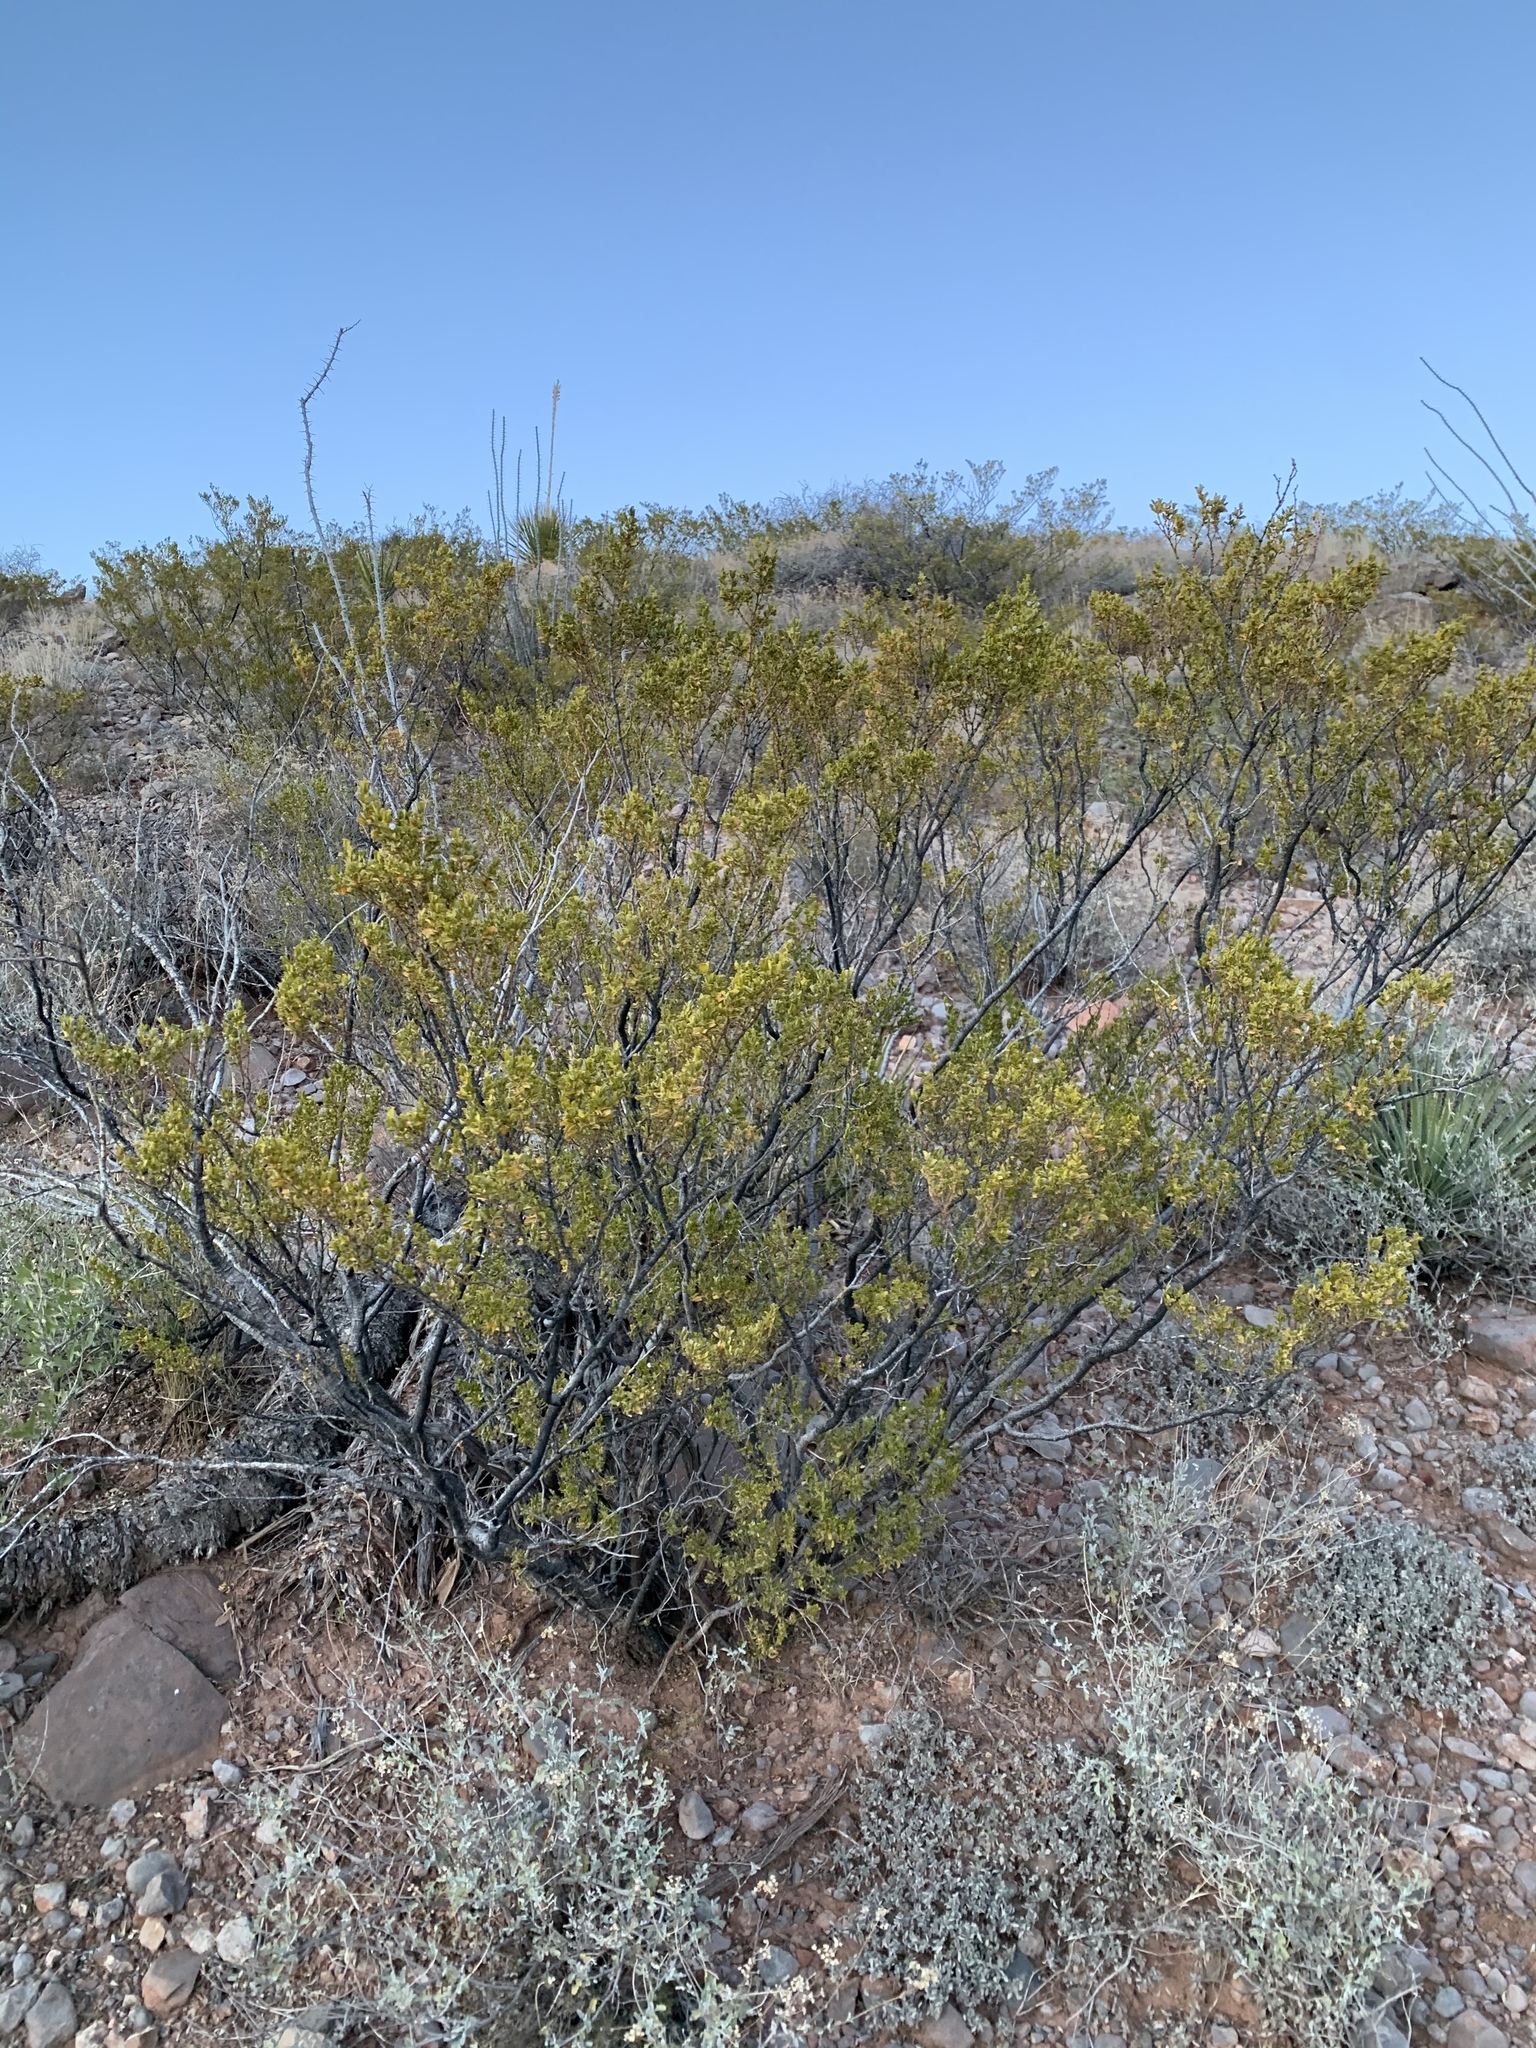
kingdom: Plantae
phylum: Tracheophyta
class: Magnoliopsida
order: Zygophyllales
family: Zygophyllaceae
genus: Larrea
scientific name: Larrea tridentata
